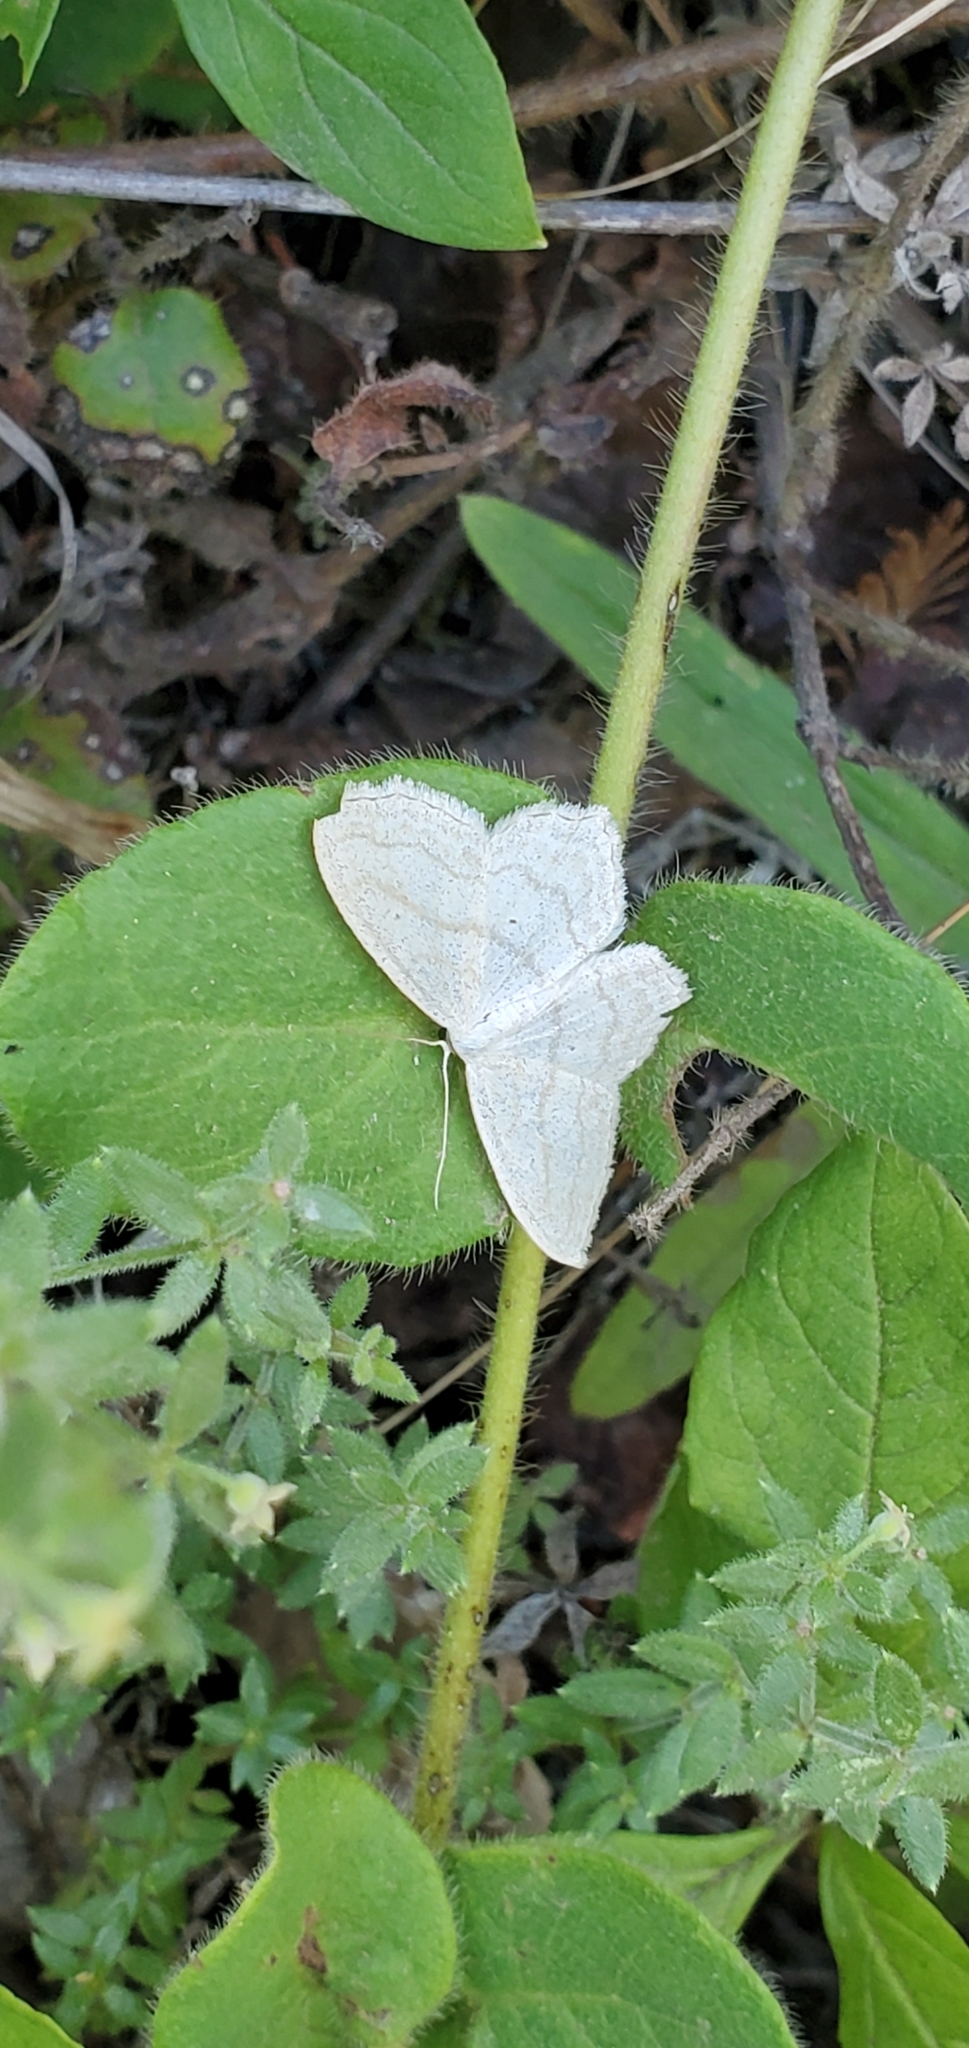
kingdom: Animalia
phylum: Arthropoda
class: Insecta
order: Lepidoptera
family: Geometridae
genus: Scopula
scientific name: Scopula quinquelinearia
